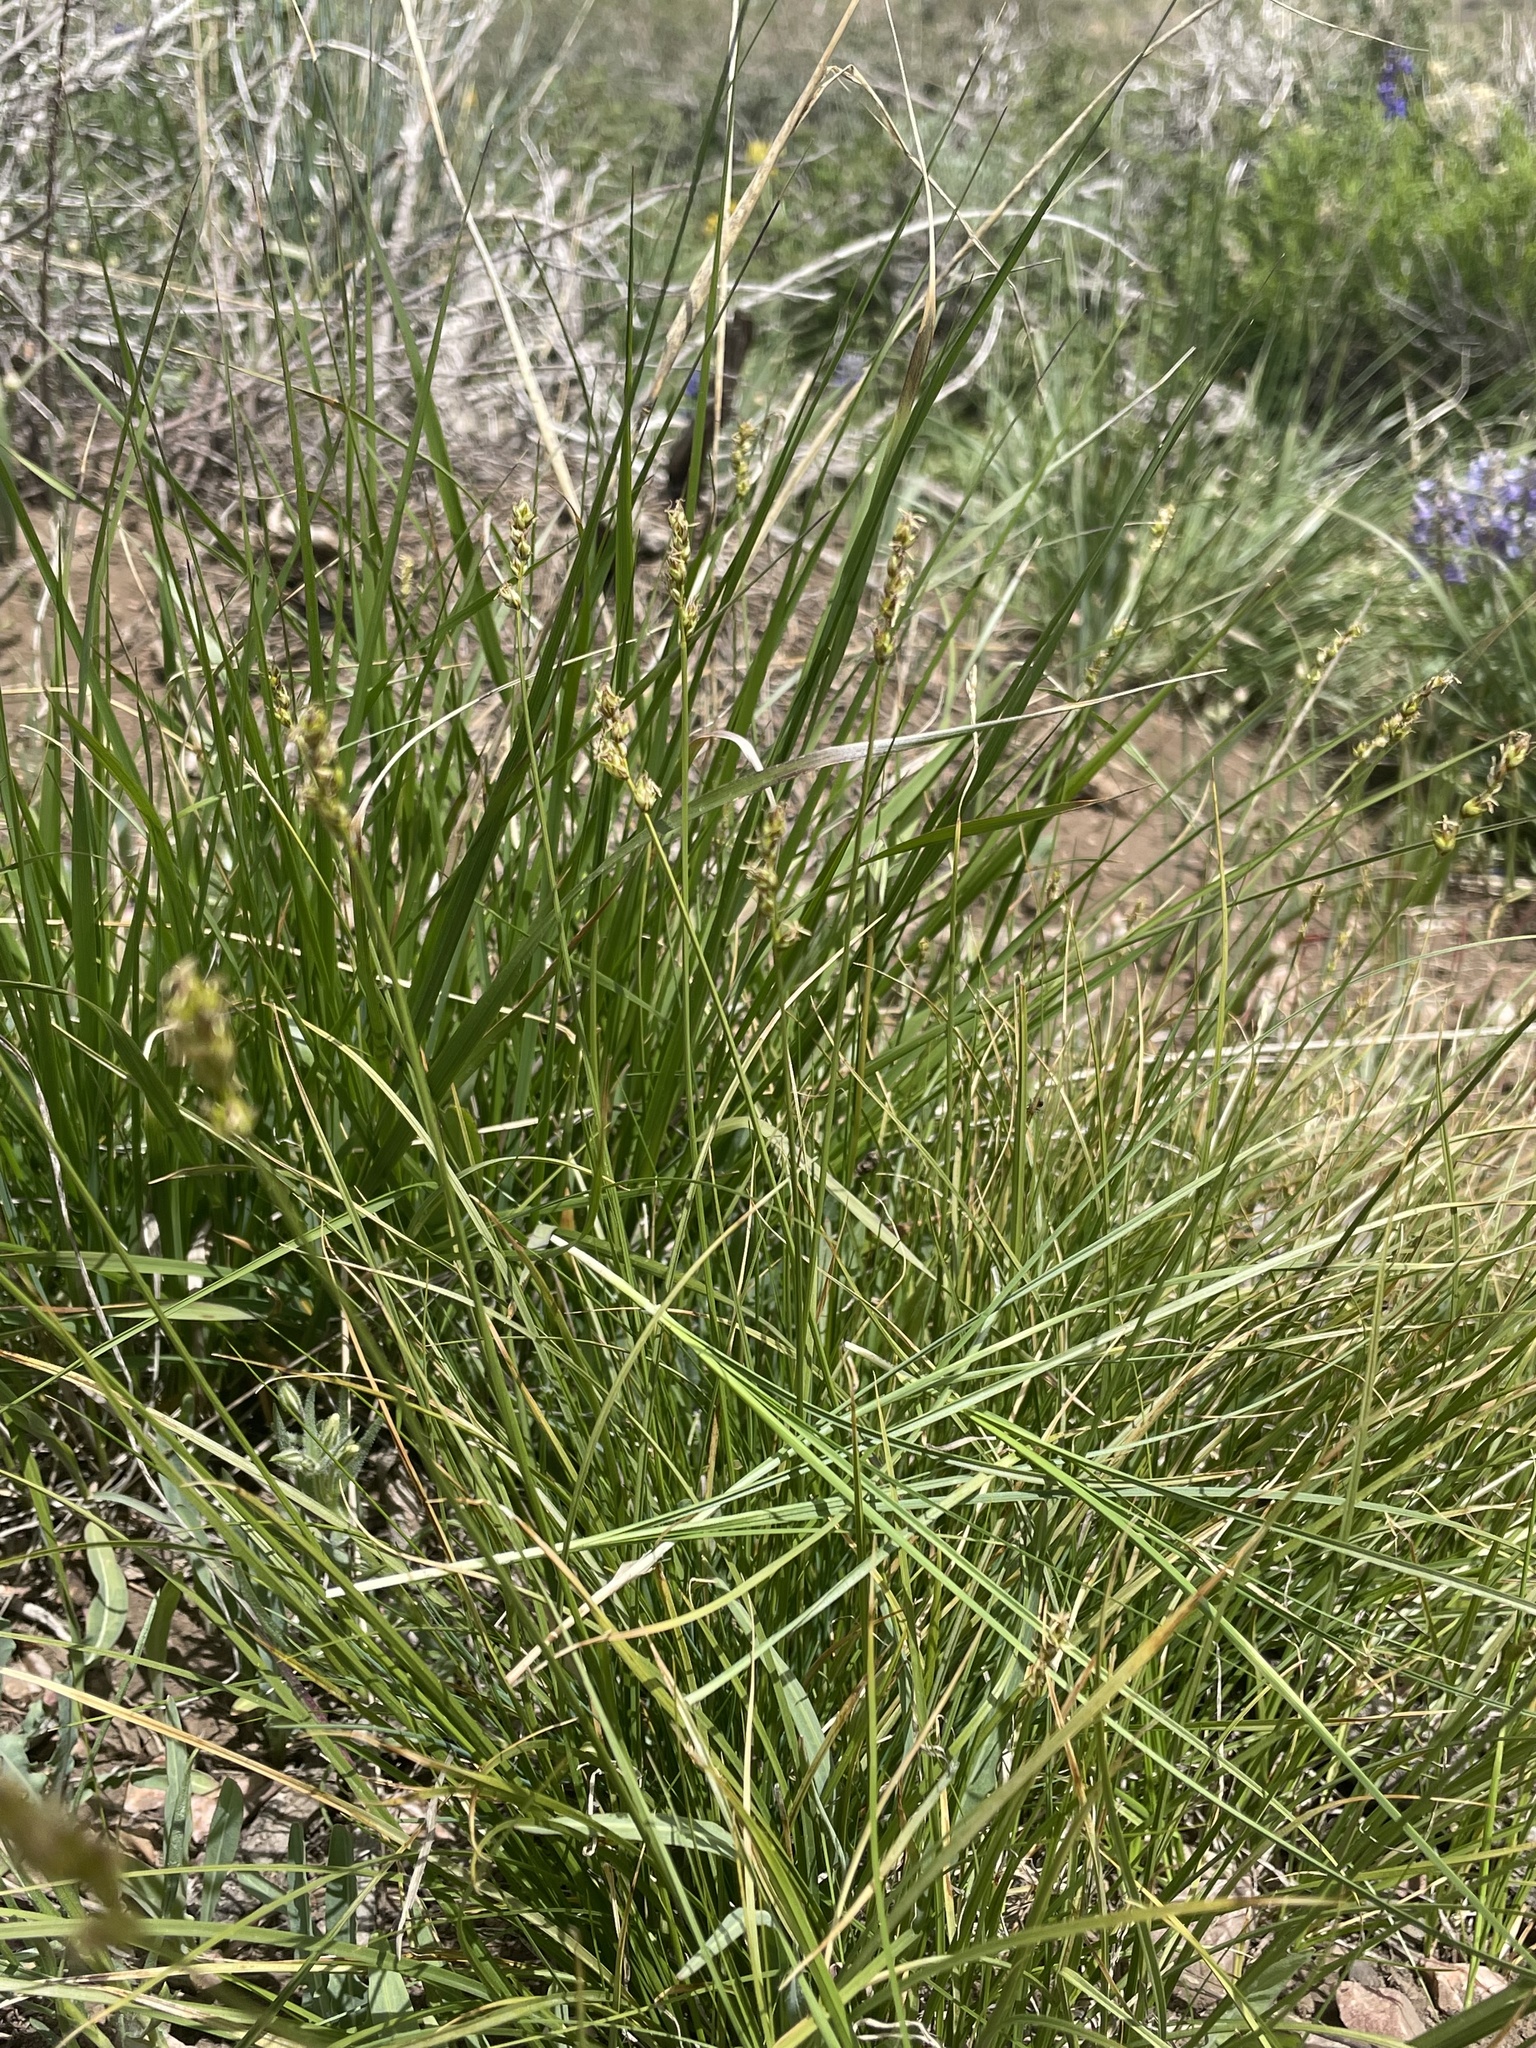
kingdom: Plantae
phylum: Tracheophyta
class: Liliopsida
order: Poales
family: Cyperaceae
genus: Carex
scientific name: Carex vallicola
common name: Valley sedge
